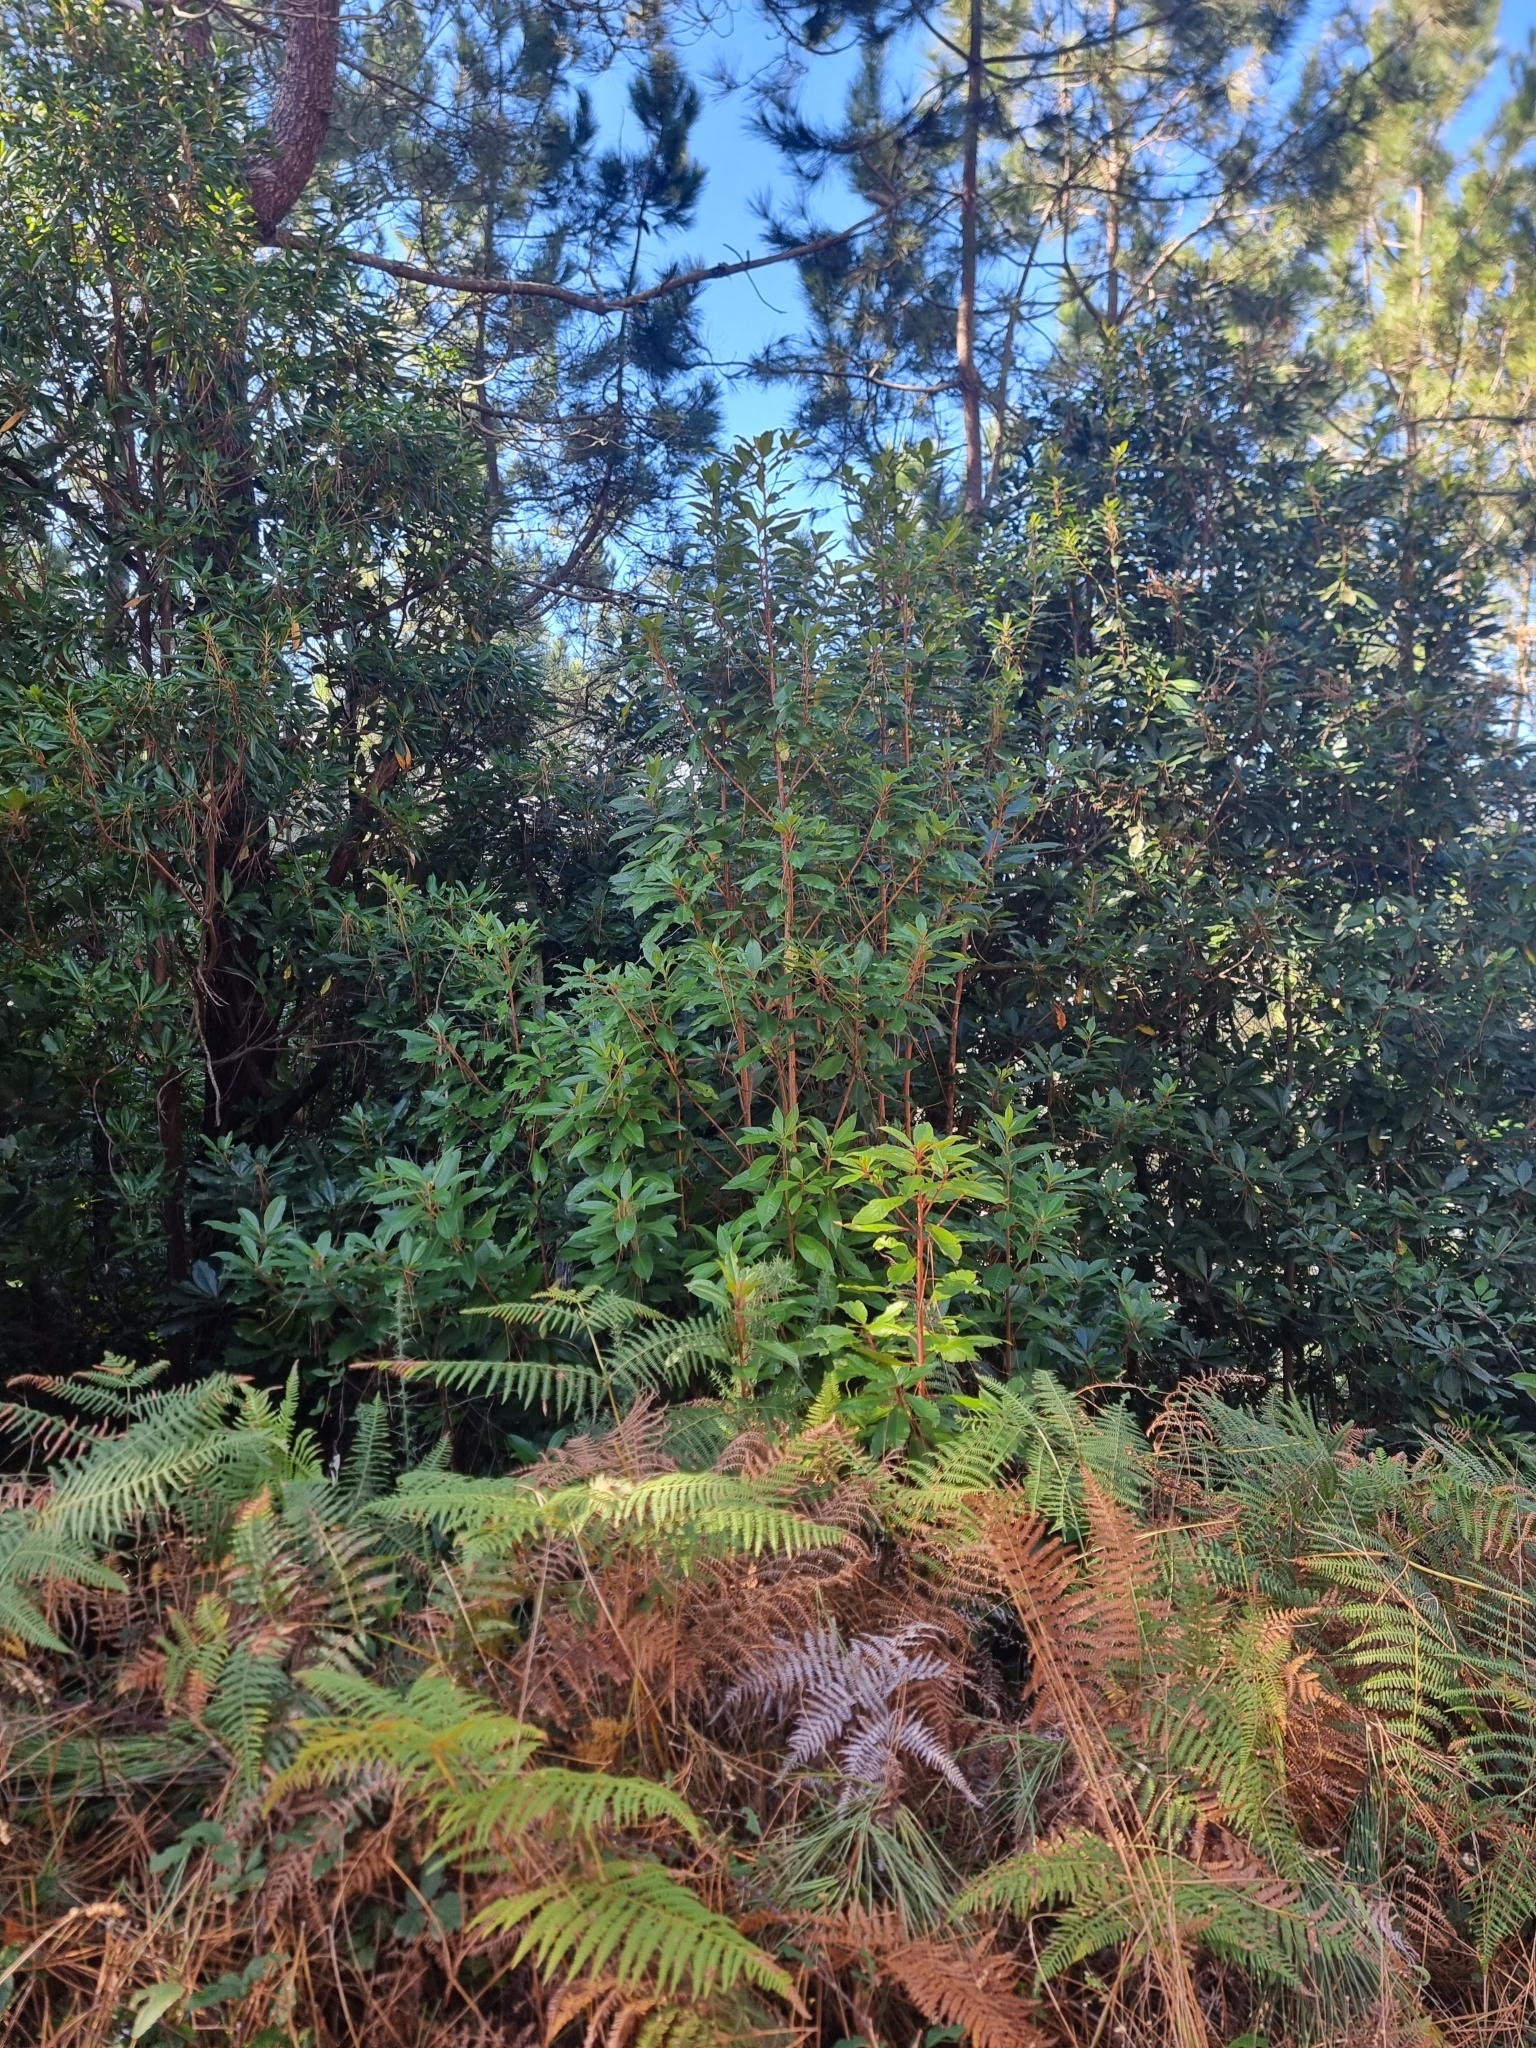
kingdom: Plantae
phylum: Tracheophyta
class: Magnoliopsida
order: Ericales
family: Clethraceae
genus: Clethra
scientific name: Clethra arborea
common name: Lily-of-the-valley-tree
